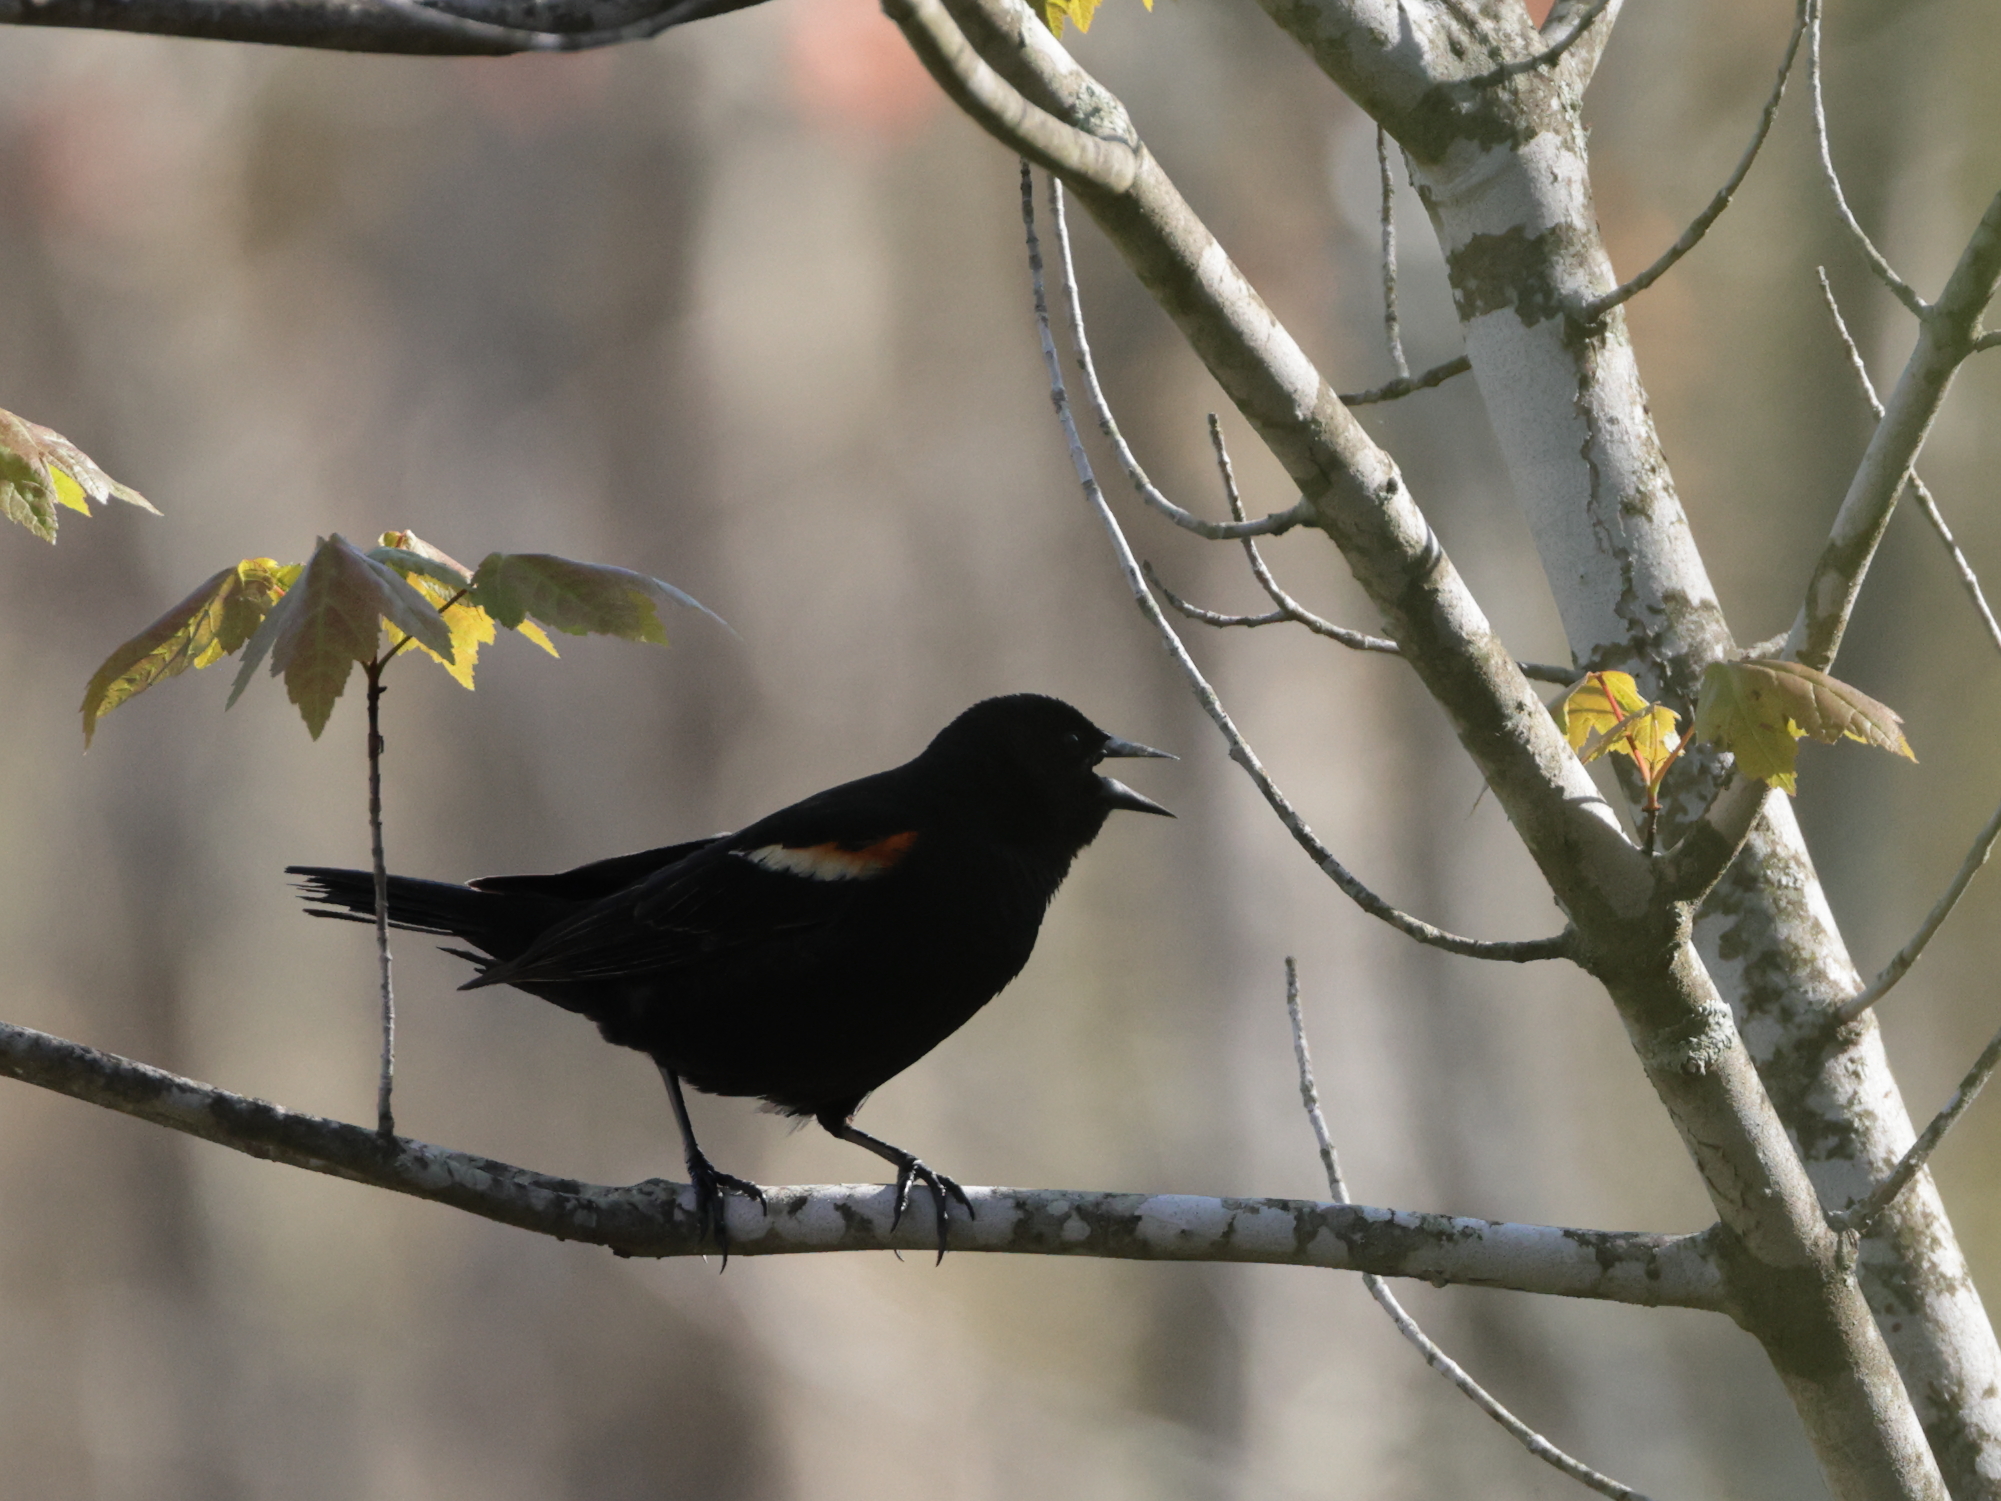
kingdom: Animalia
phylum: Chordata
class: Aves
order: Passeriformes
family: Icteridae
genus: Agelaius
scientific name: Agelaius phoeniceus
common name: Red-winged blackbird
